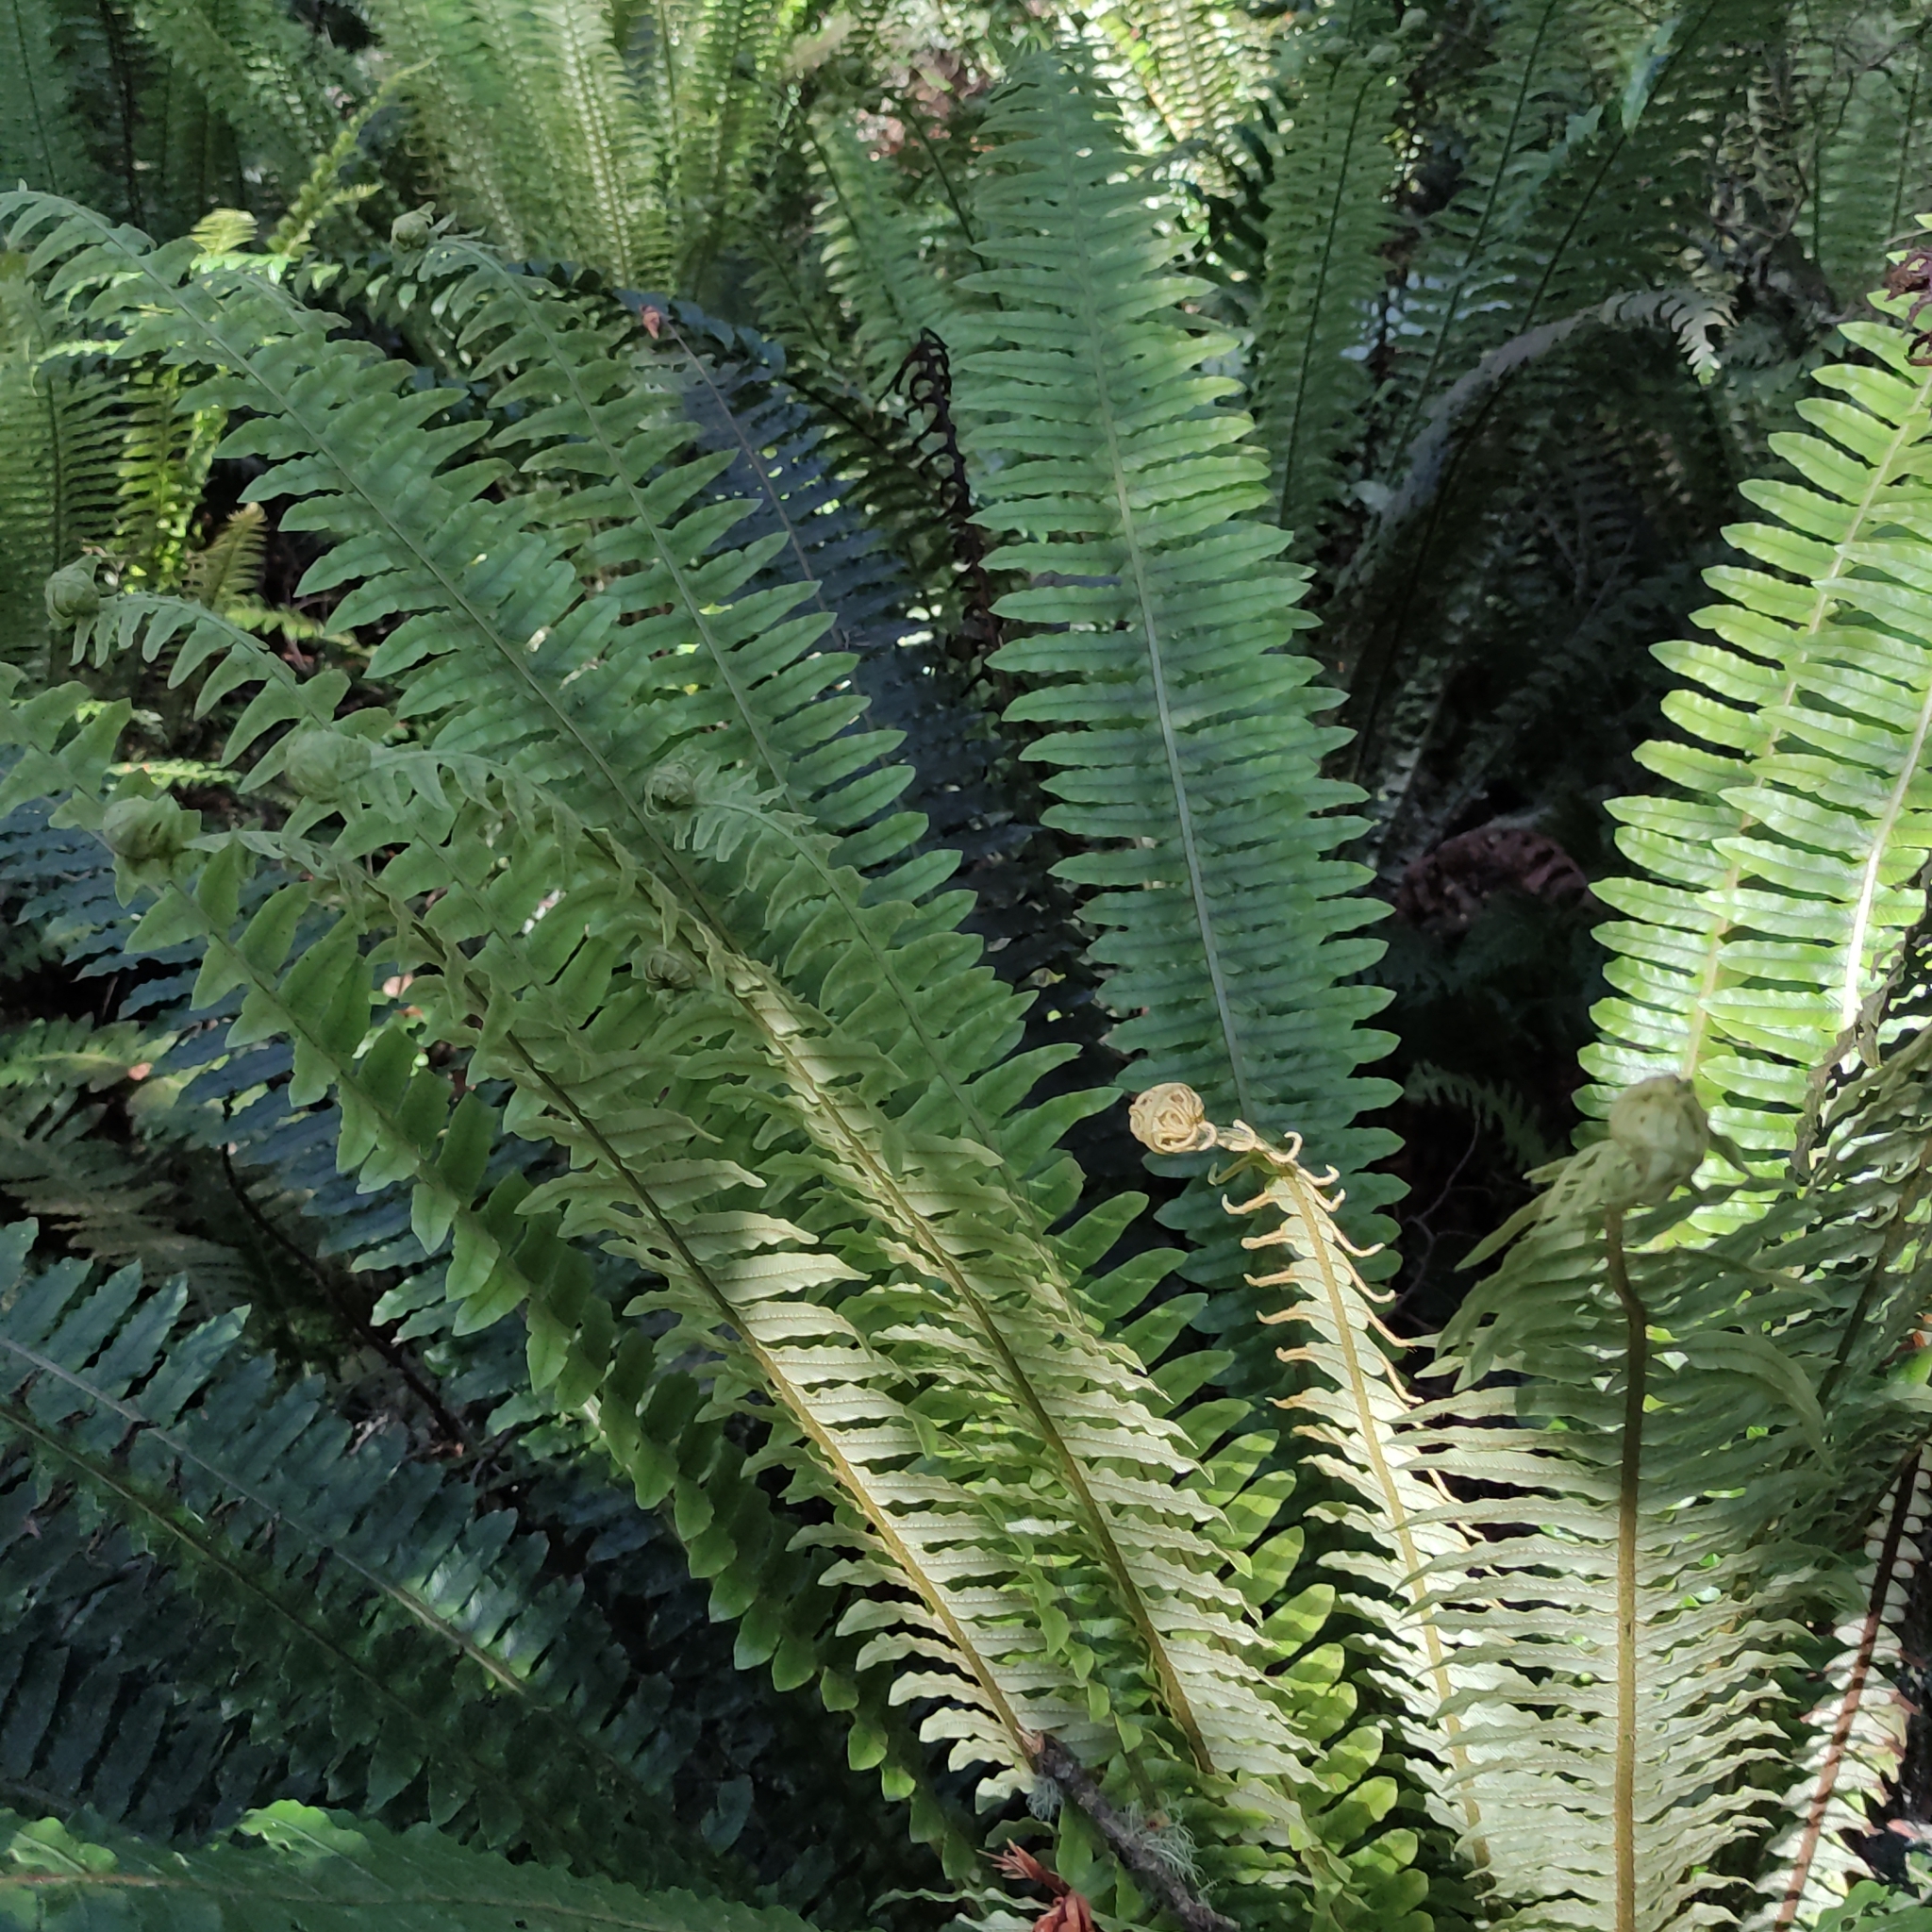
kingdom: Plantae
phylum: Tracheophyta
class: Polypodiopsida
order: Polypodiales
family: Blechnaceae
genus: Lomaria
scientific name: Lomaria discolor
